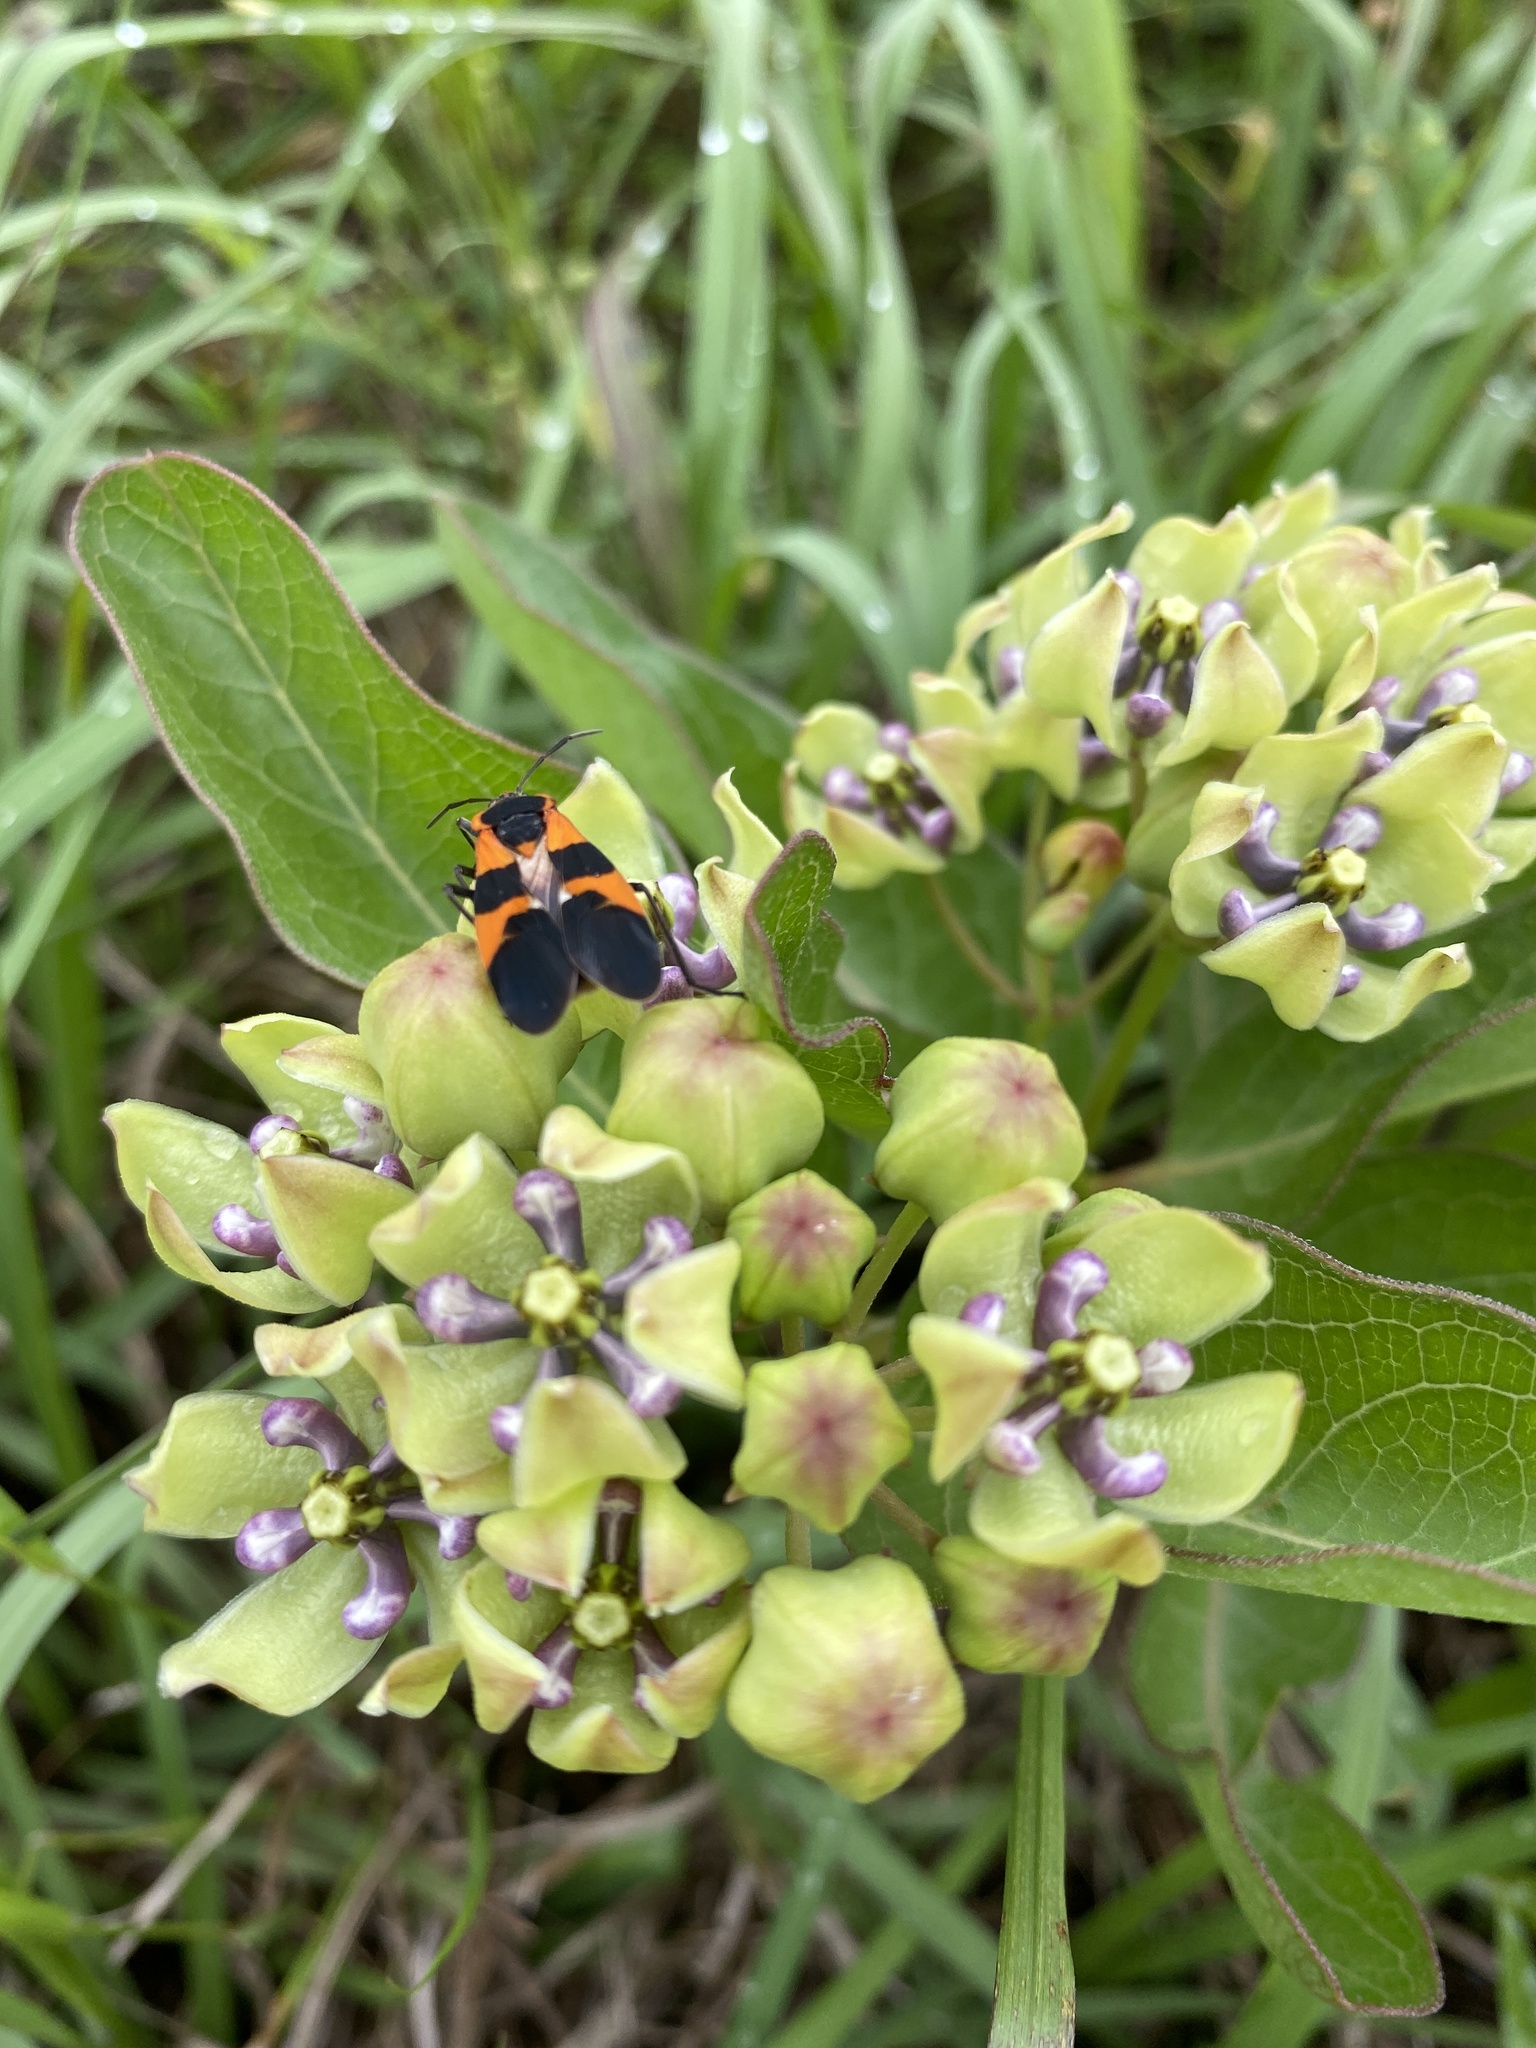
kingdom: Animalia
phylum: Arthropoda
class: Insecta
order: Hemiptera
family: Lygaeidae
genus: Oncopeltus
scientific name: Oncopeltus fasciatus
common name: Large milkweed bug
